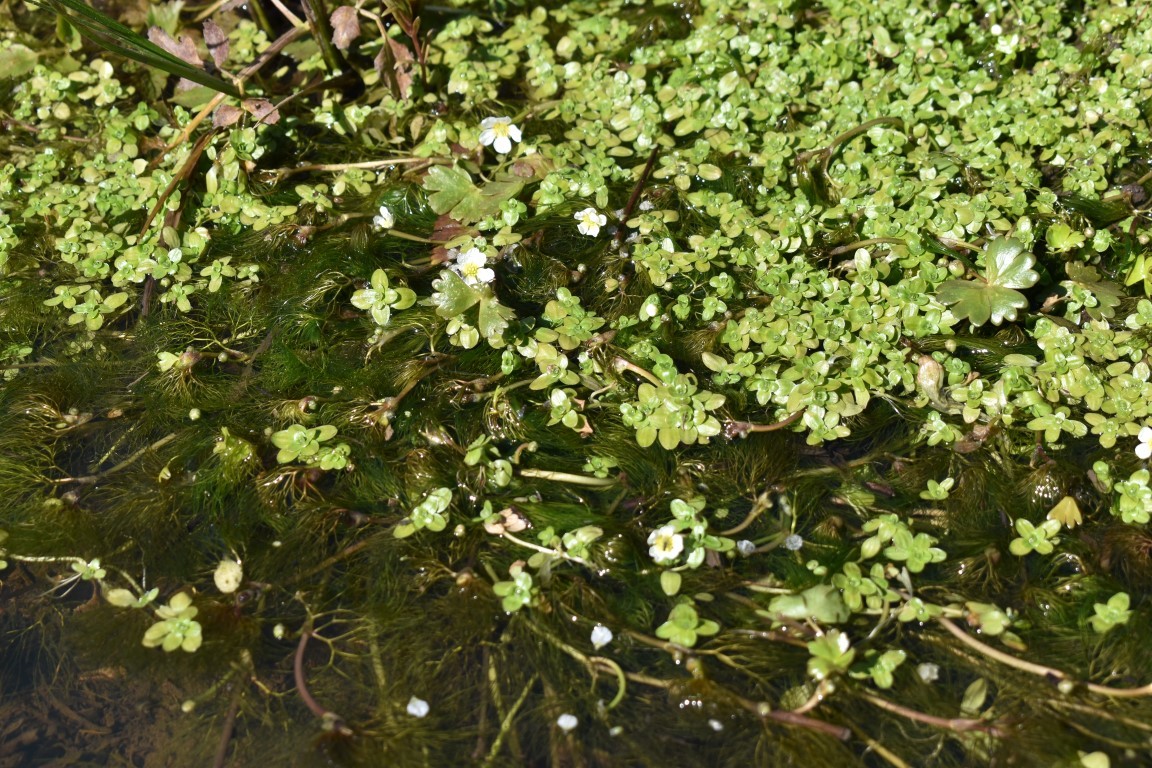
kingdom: Plantae
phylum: Tracheophyta
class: Magnoliopsida
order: Ranunculales
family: Ranunculaceae
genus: Ranunculus
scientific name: Ranunculus aquatilis
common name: Common water-crowfoot
